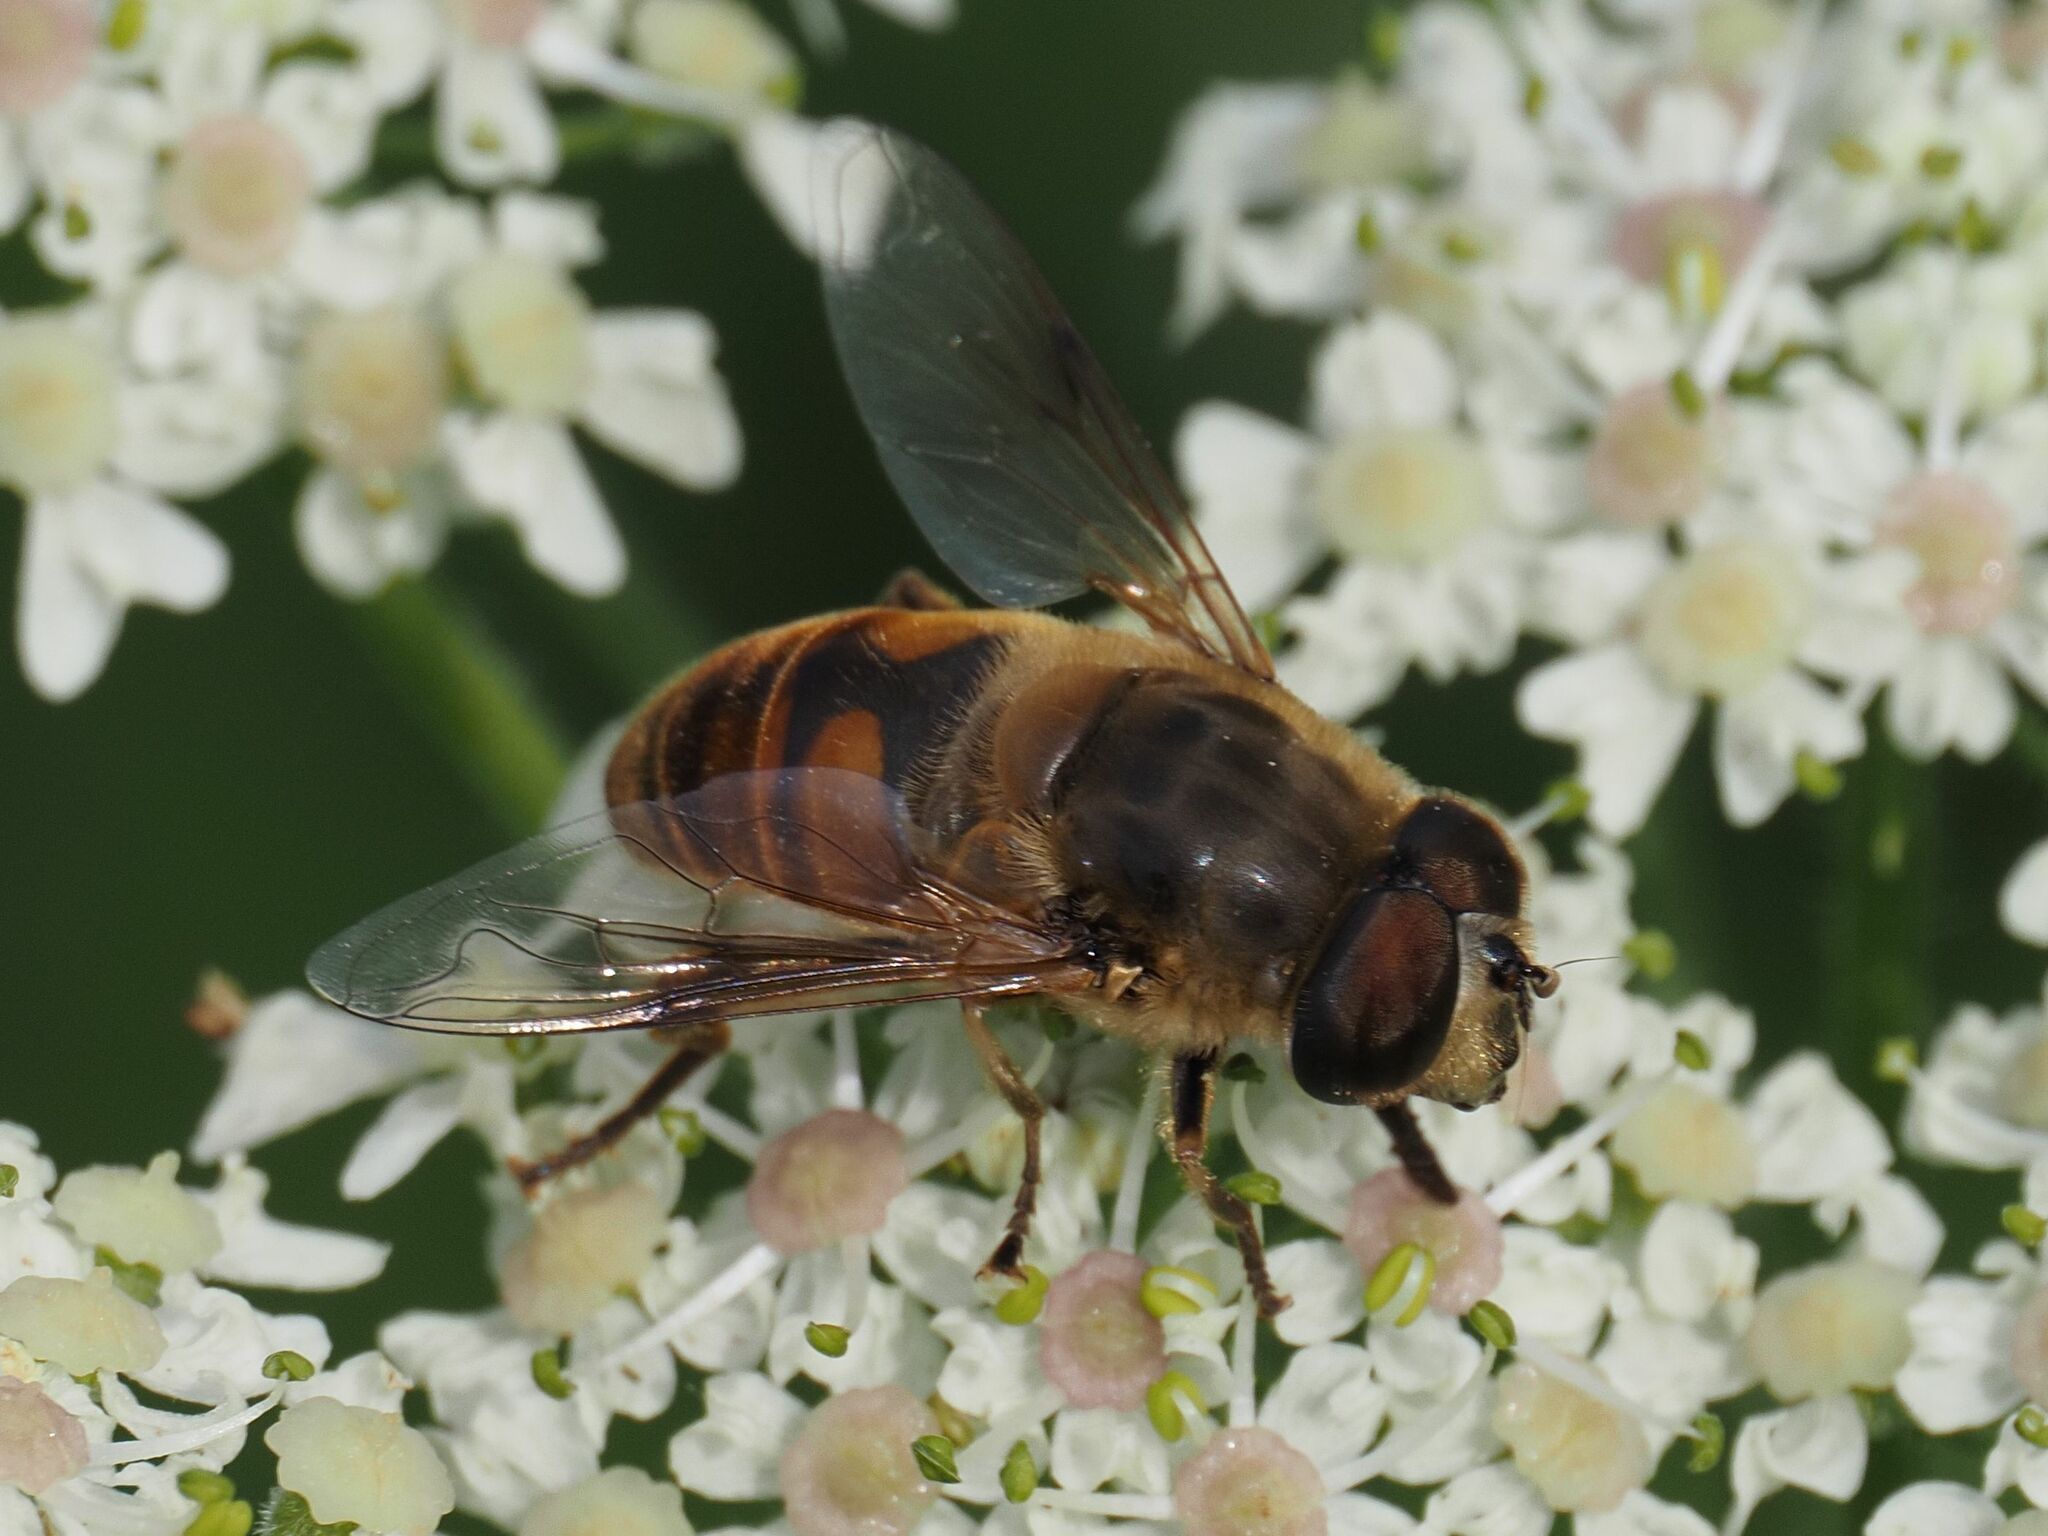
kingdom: Animalia
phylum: Arthropoda
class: Insecta
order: Diptera
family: Syrphidae
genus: Eristalis
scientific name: Eristalis tenax
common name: Drone fly
